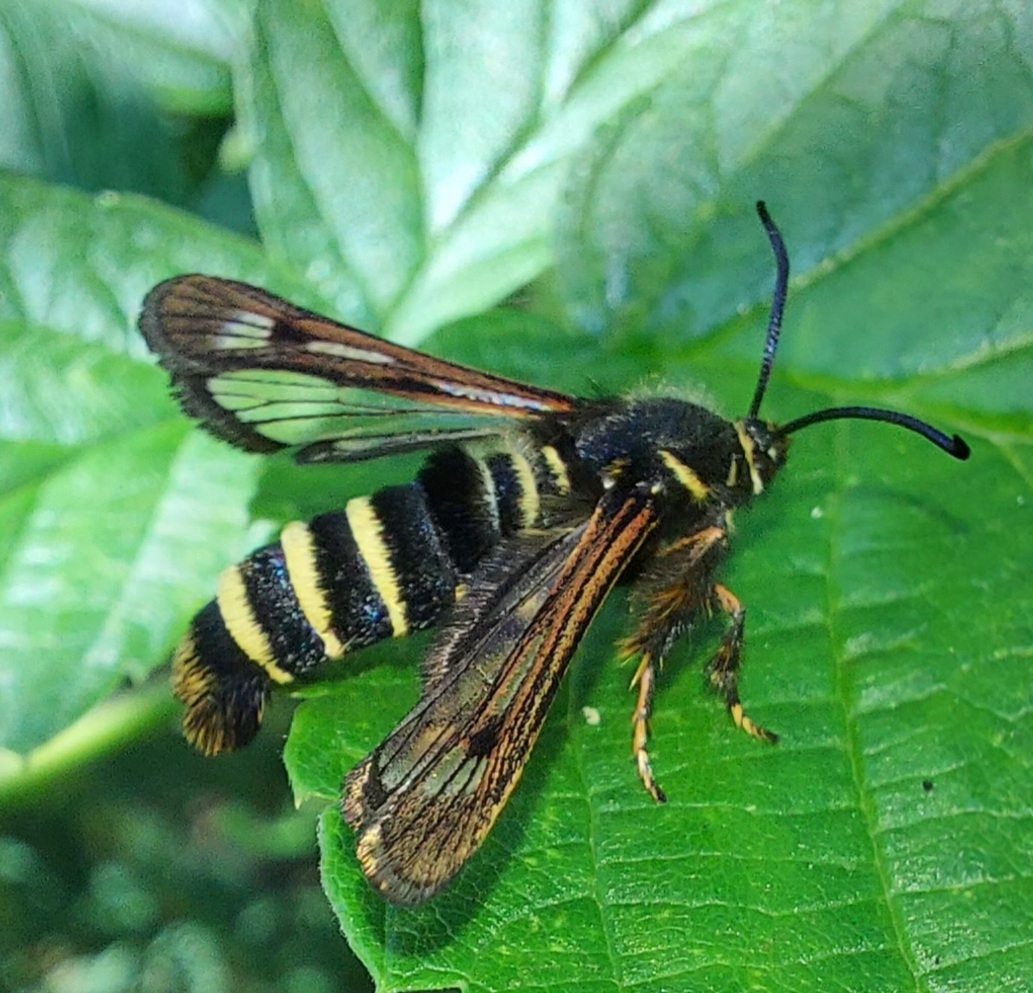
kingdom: Animalia
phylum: Arthropoda
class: Insecta
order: Lepidoptera
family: Sesiidae
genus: Pennisetia
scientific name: Pennisetia hylaeiformis
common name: Raspberry clearwing
